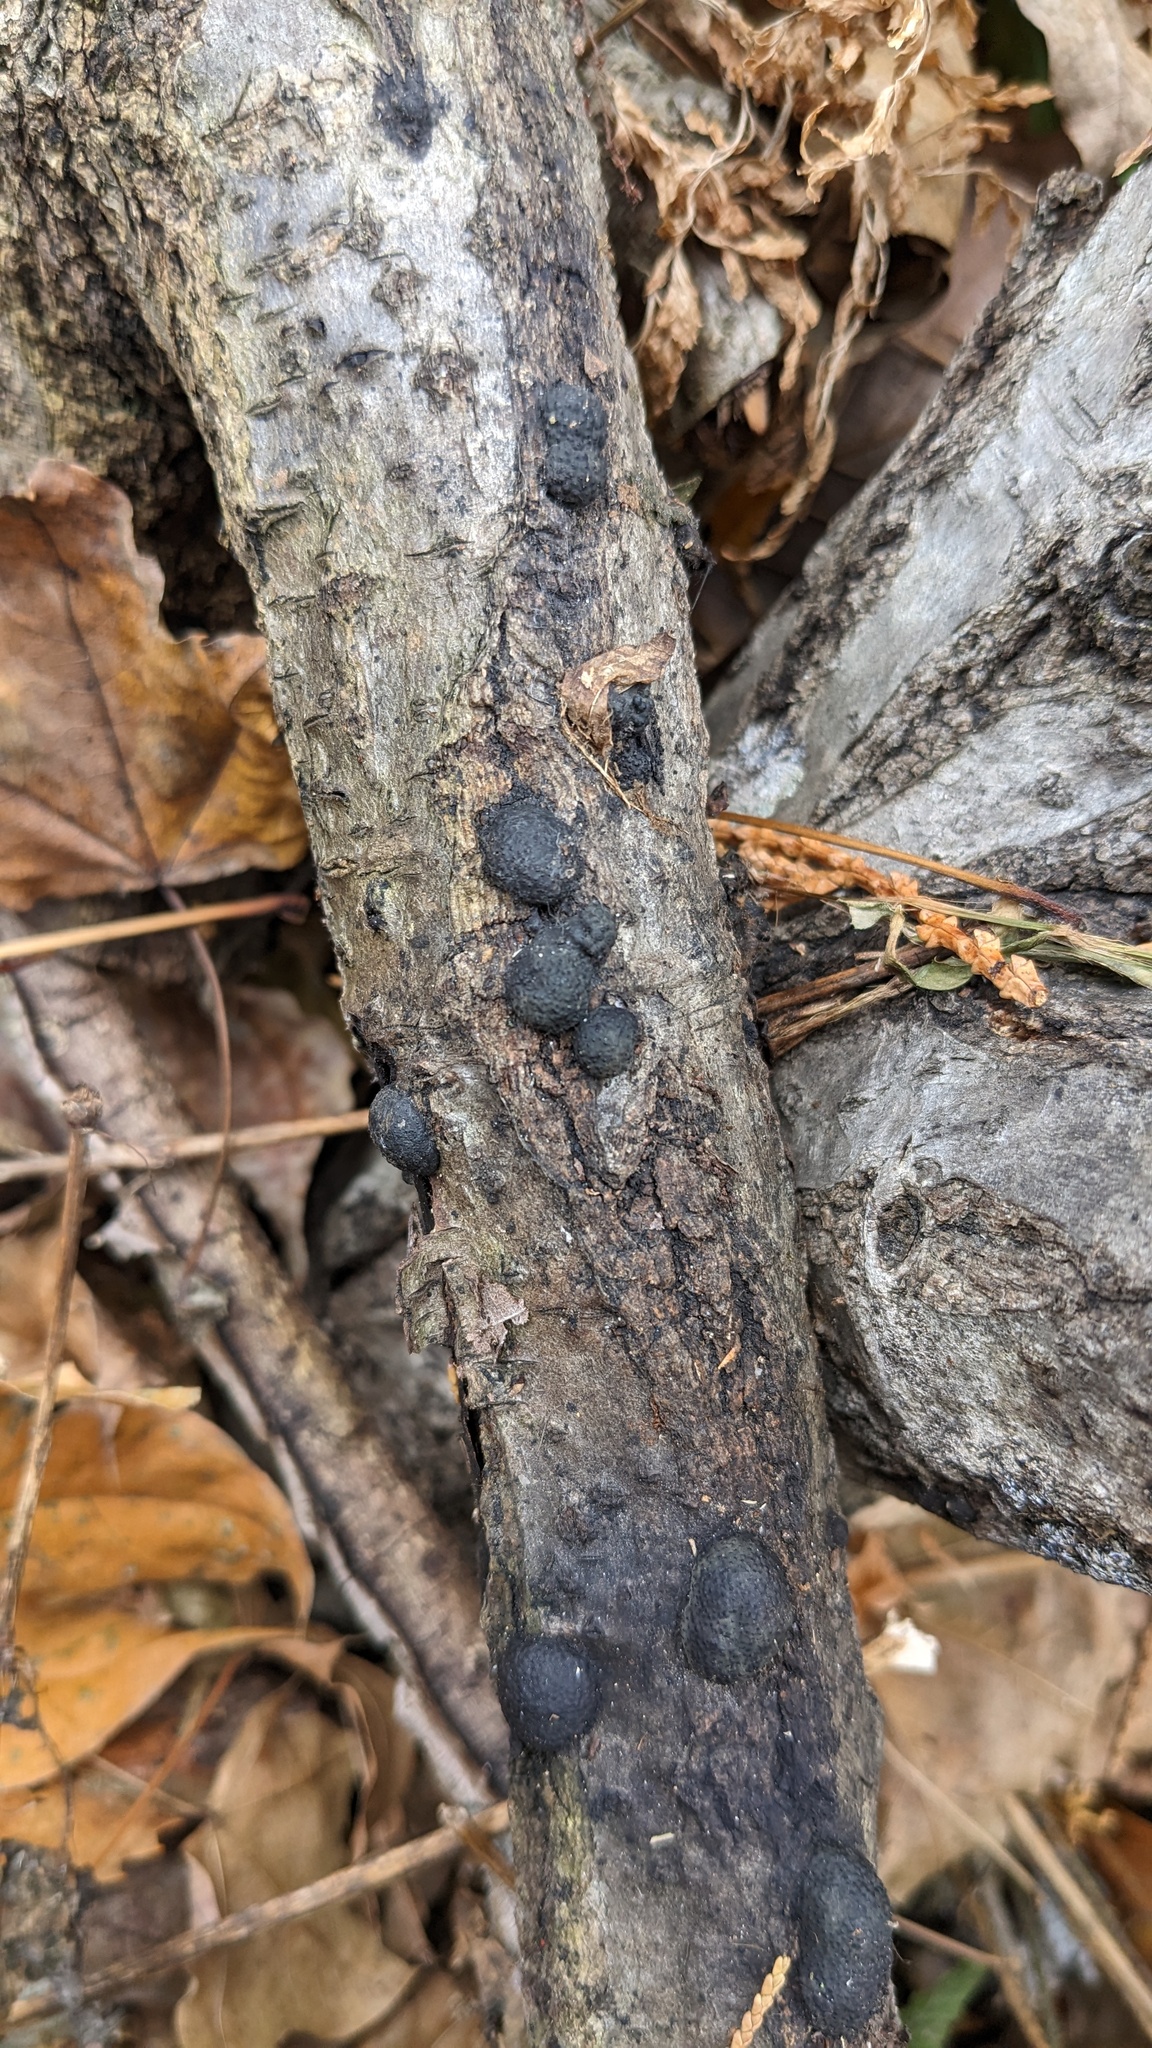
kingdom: Fungi
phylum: Ascomycota
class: Sordariomycetes
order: Xylariales
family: Hypoxylaceae
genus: Annulohypoxylon
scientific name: Annulohypoxylon truncatum
